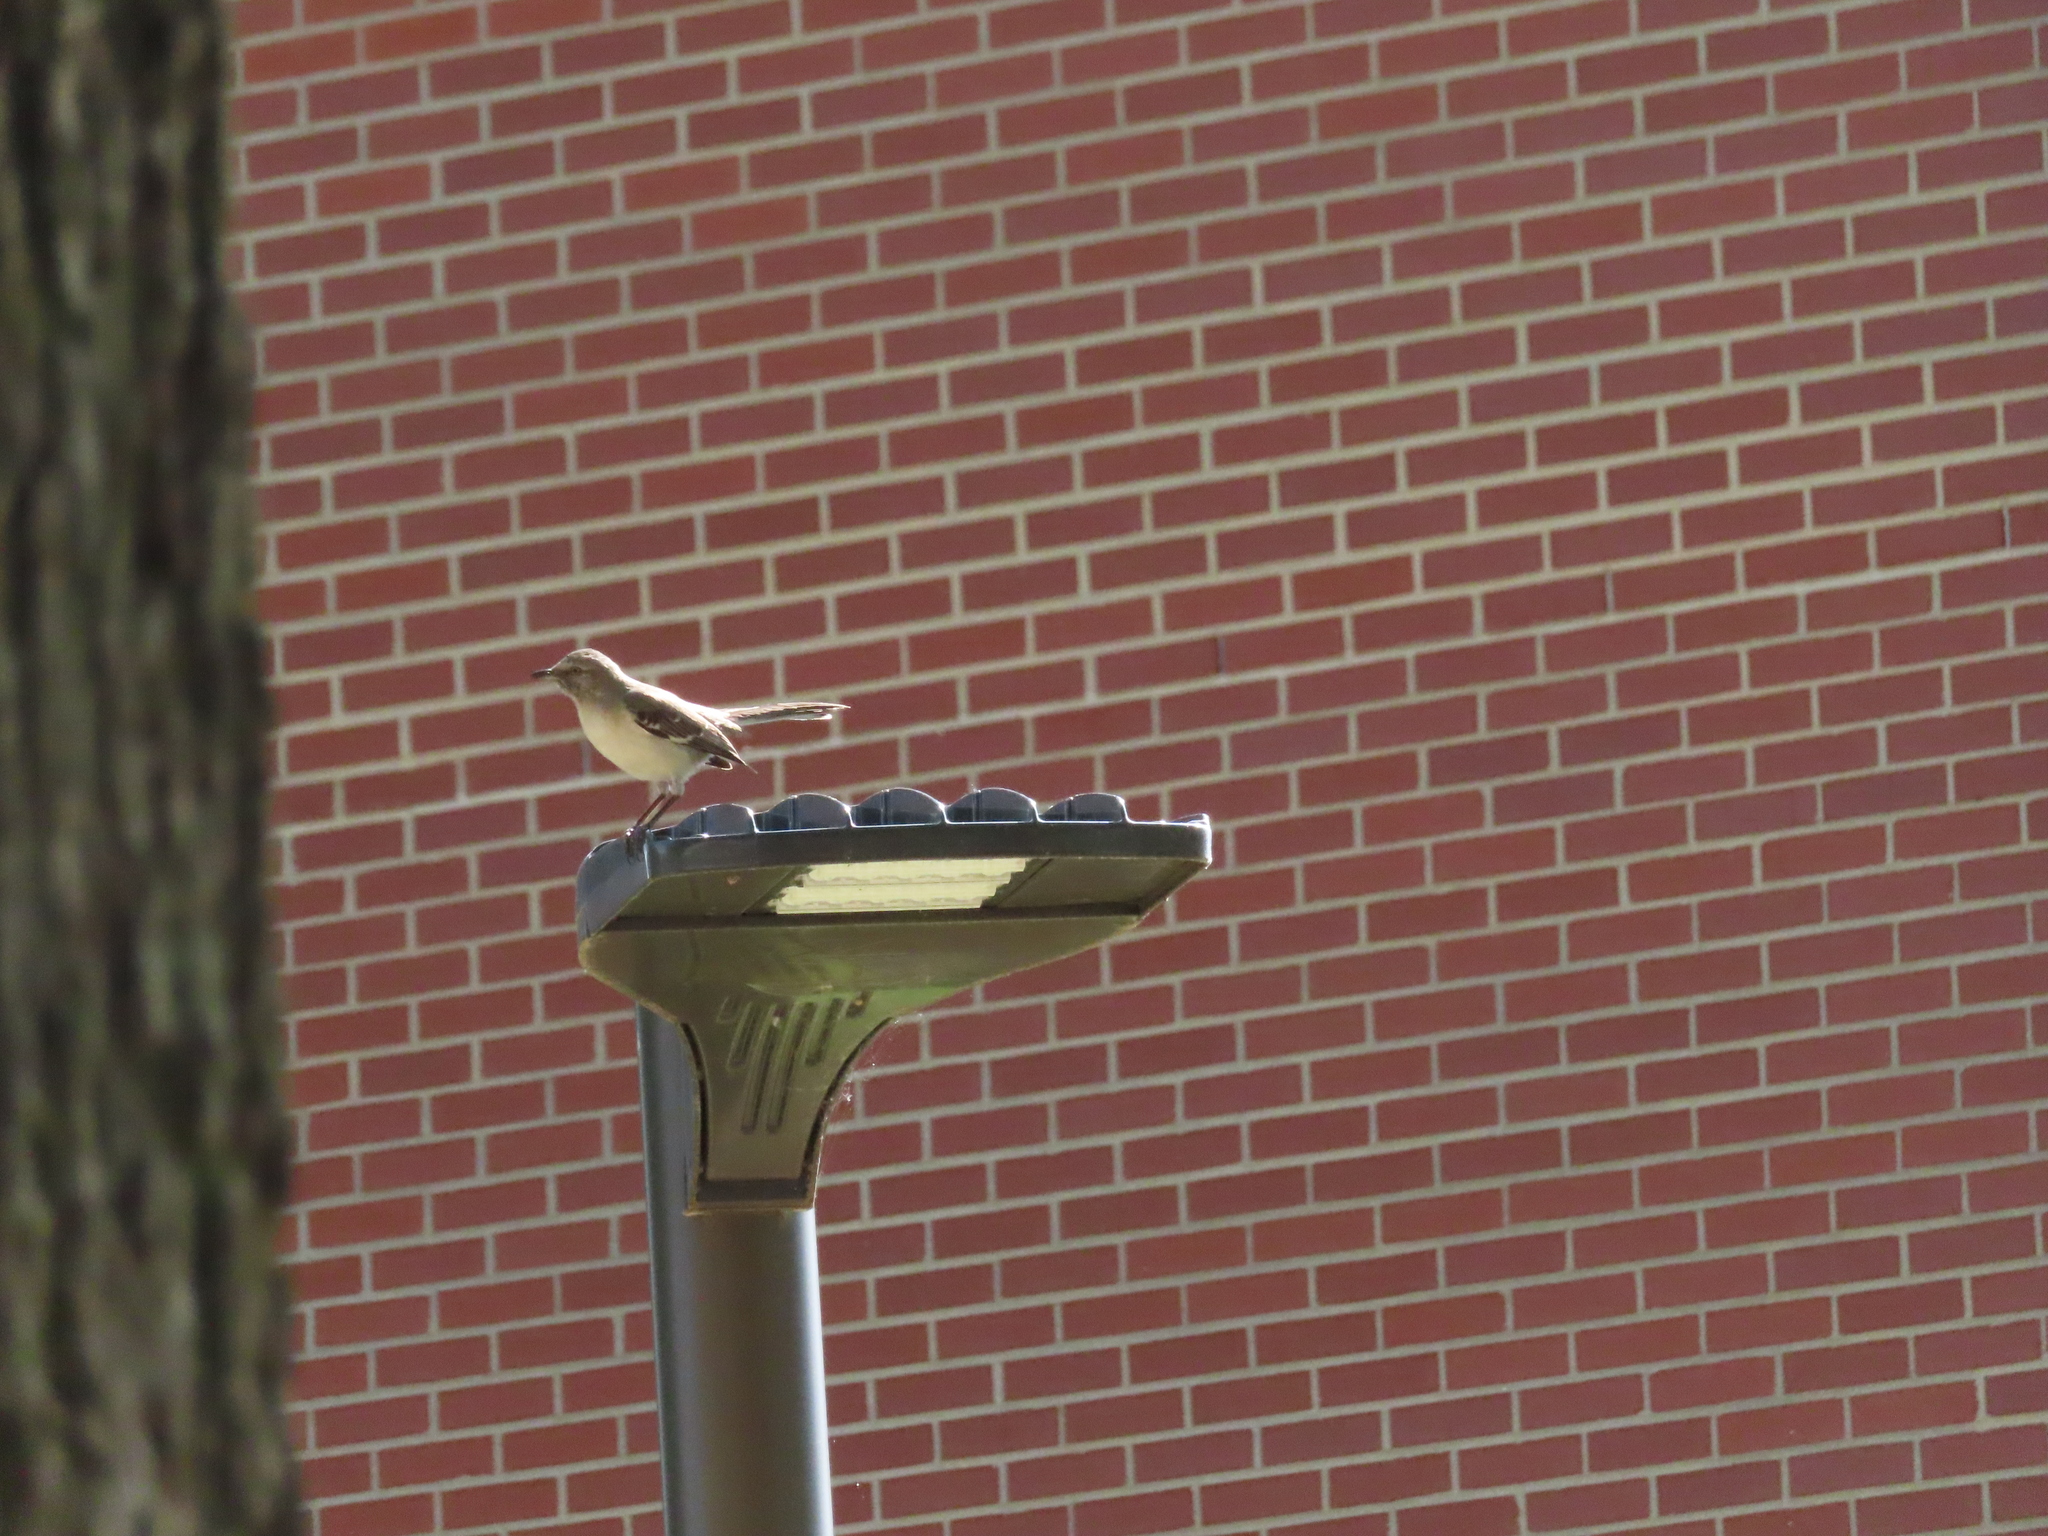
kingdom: Animalia
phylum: Chordata
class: Aves
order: Passeriformes
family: Mimidae
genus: Mimus
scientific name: Mimus polyglottos
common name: Northern mockingbird
